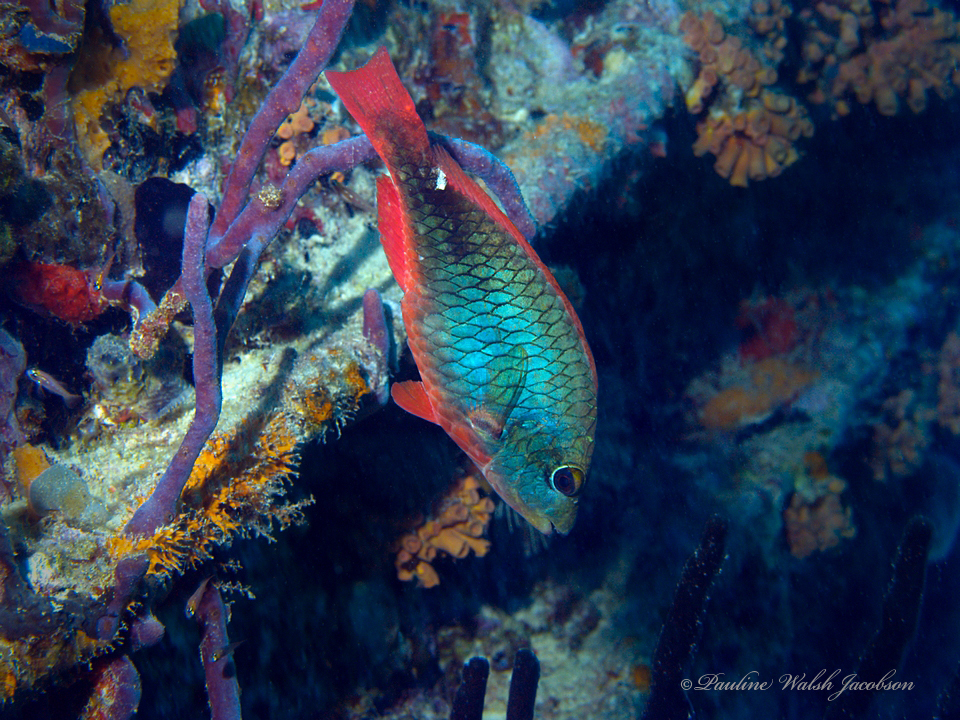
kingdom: Animalia
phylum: Chordata
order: Perciformes
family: Scaridae
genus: Sparisoma
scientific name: Sparisoma aurofrenatum
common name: Redband parrotfish
